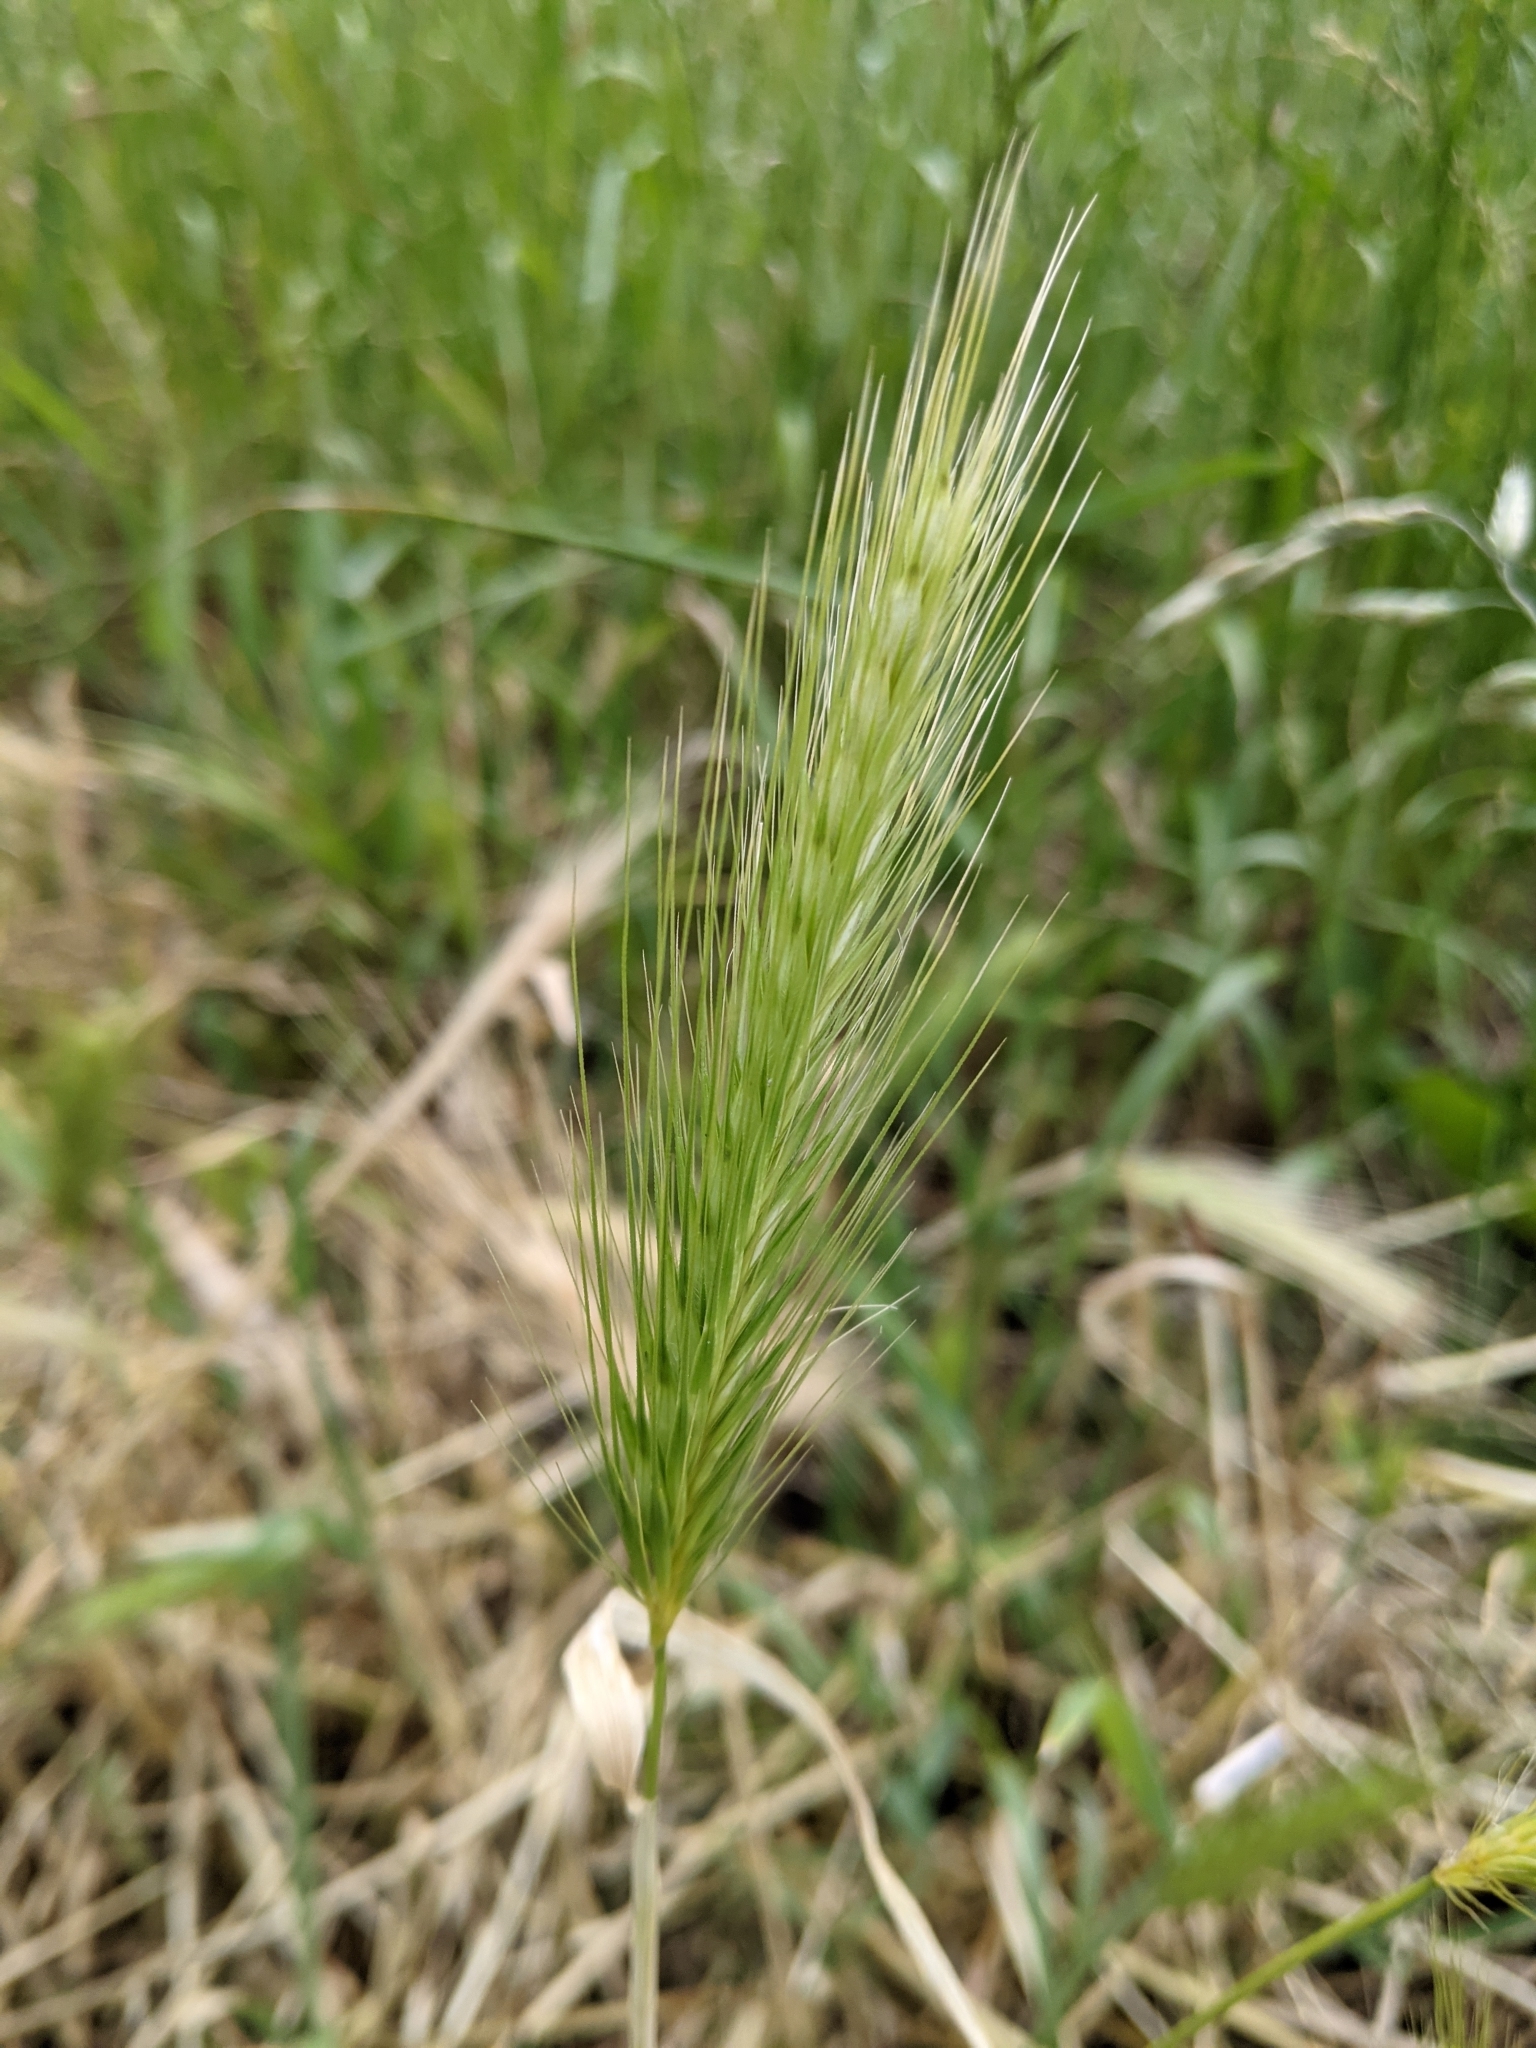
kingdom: Plantae
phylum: Tracheophyta
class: Liliopsida
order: Poales
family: Poaceae
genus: Hordeum
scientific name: Hordeum murinum
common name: Wall barley
